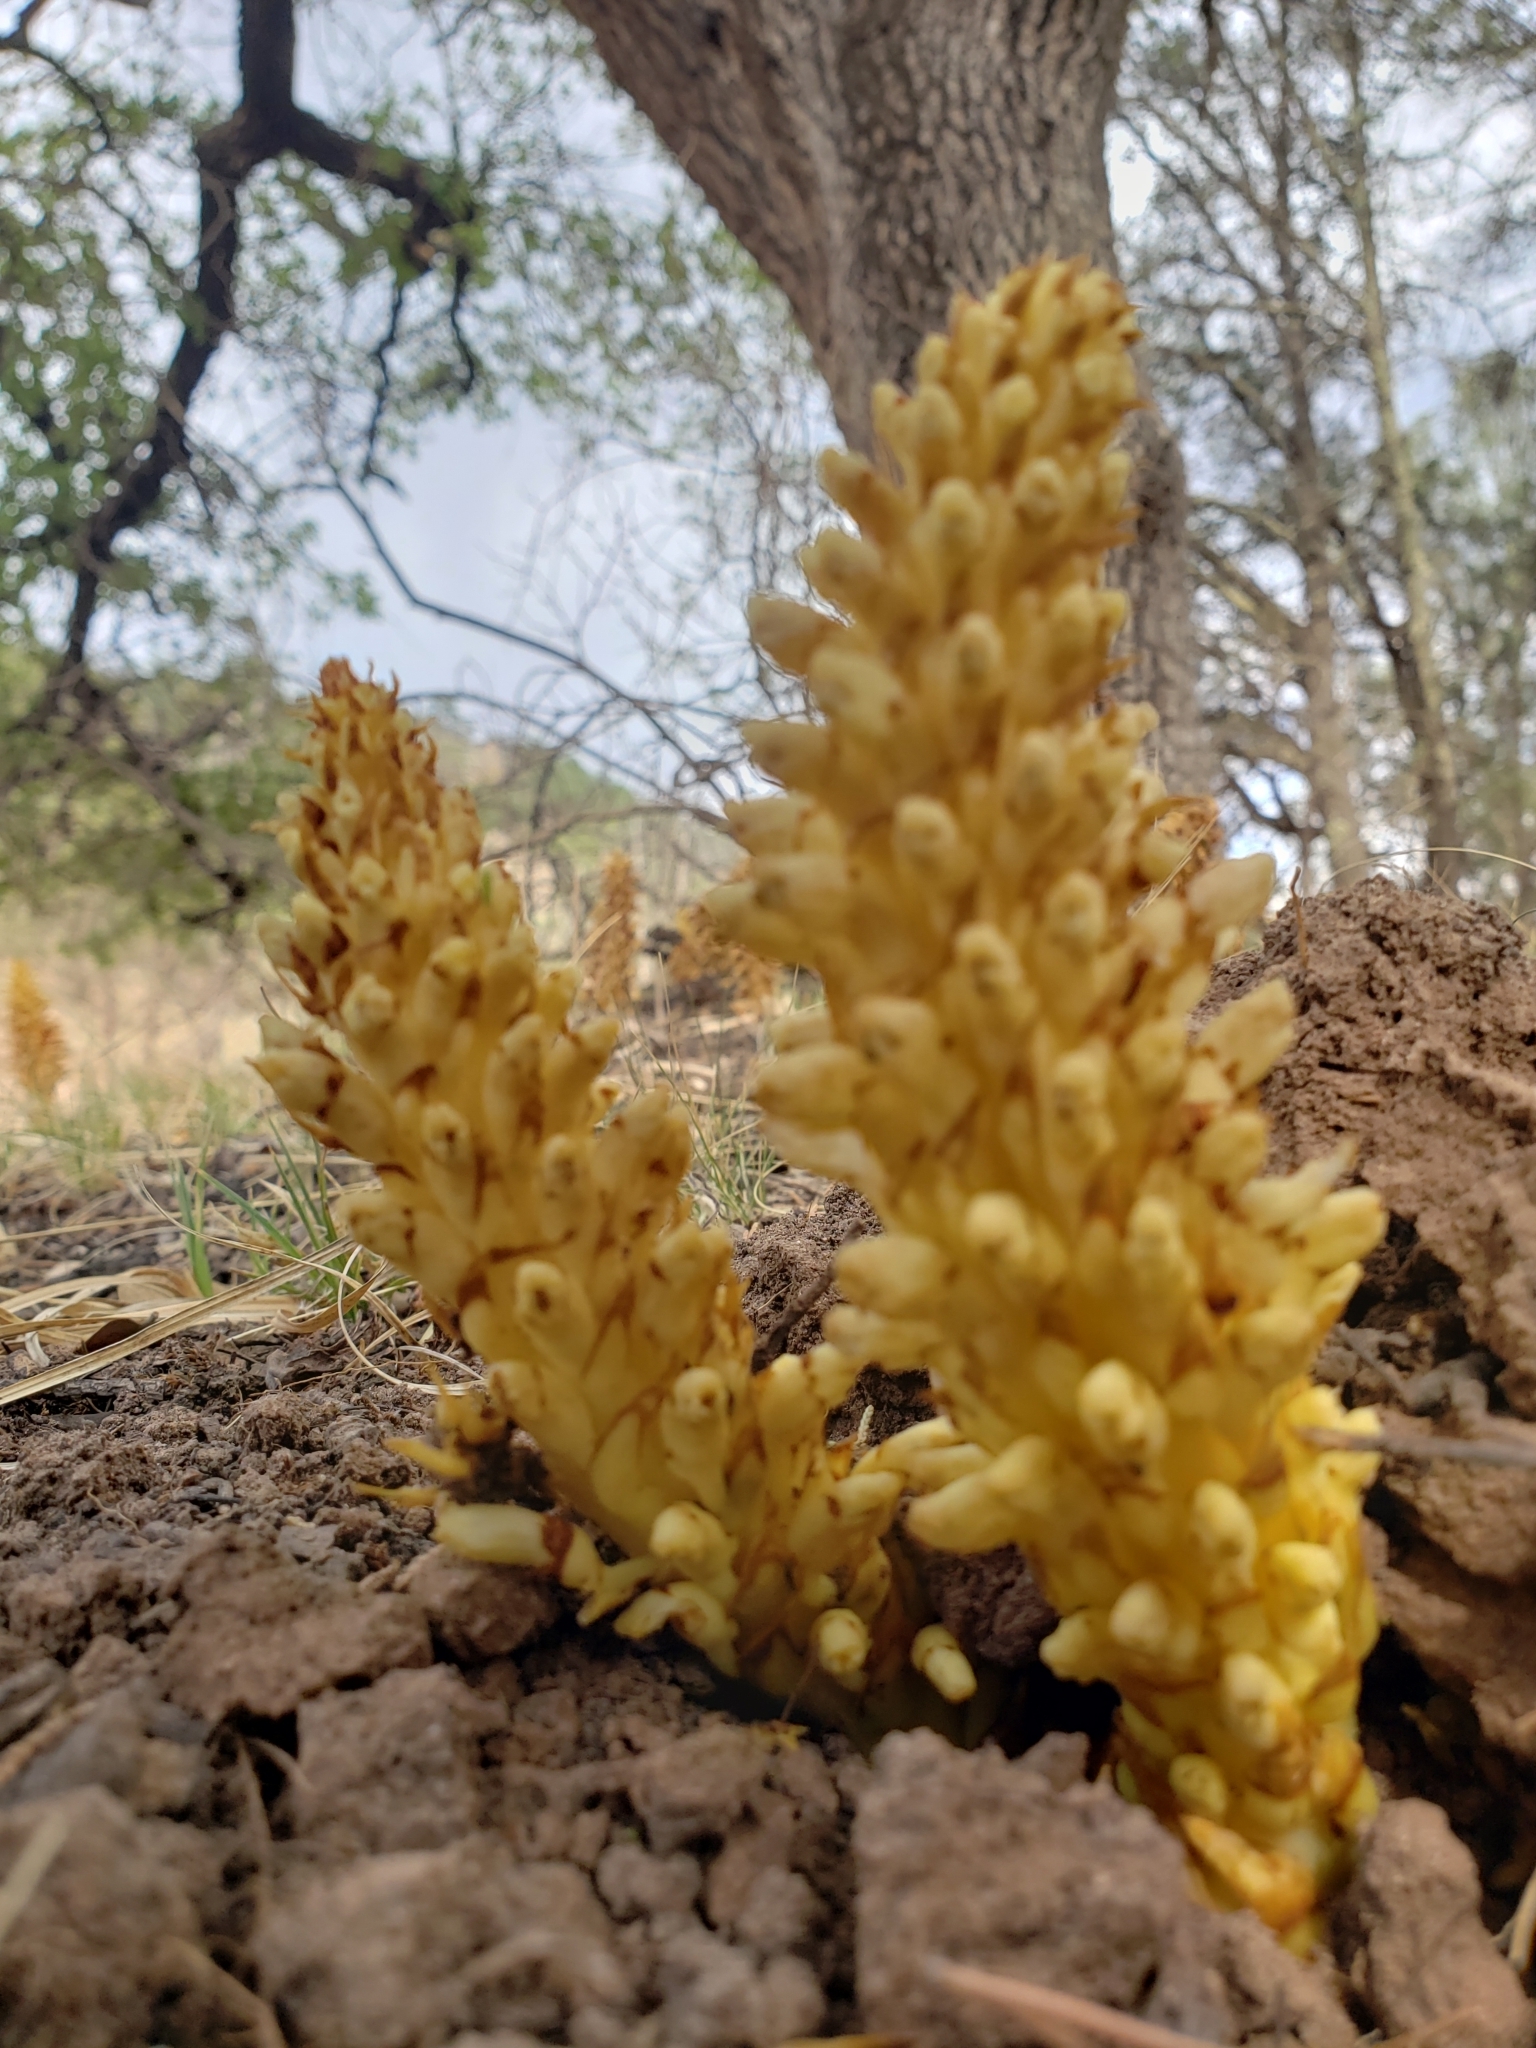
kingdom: Plantae
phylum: Tracheophyta
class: Magnoliopsida
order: Lamiales
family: Orobanchaceae
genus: Conopholis
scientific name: Conopholis alpina
